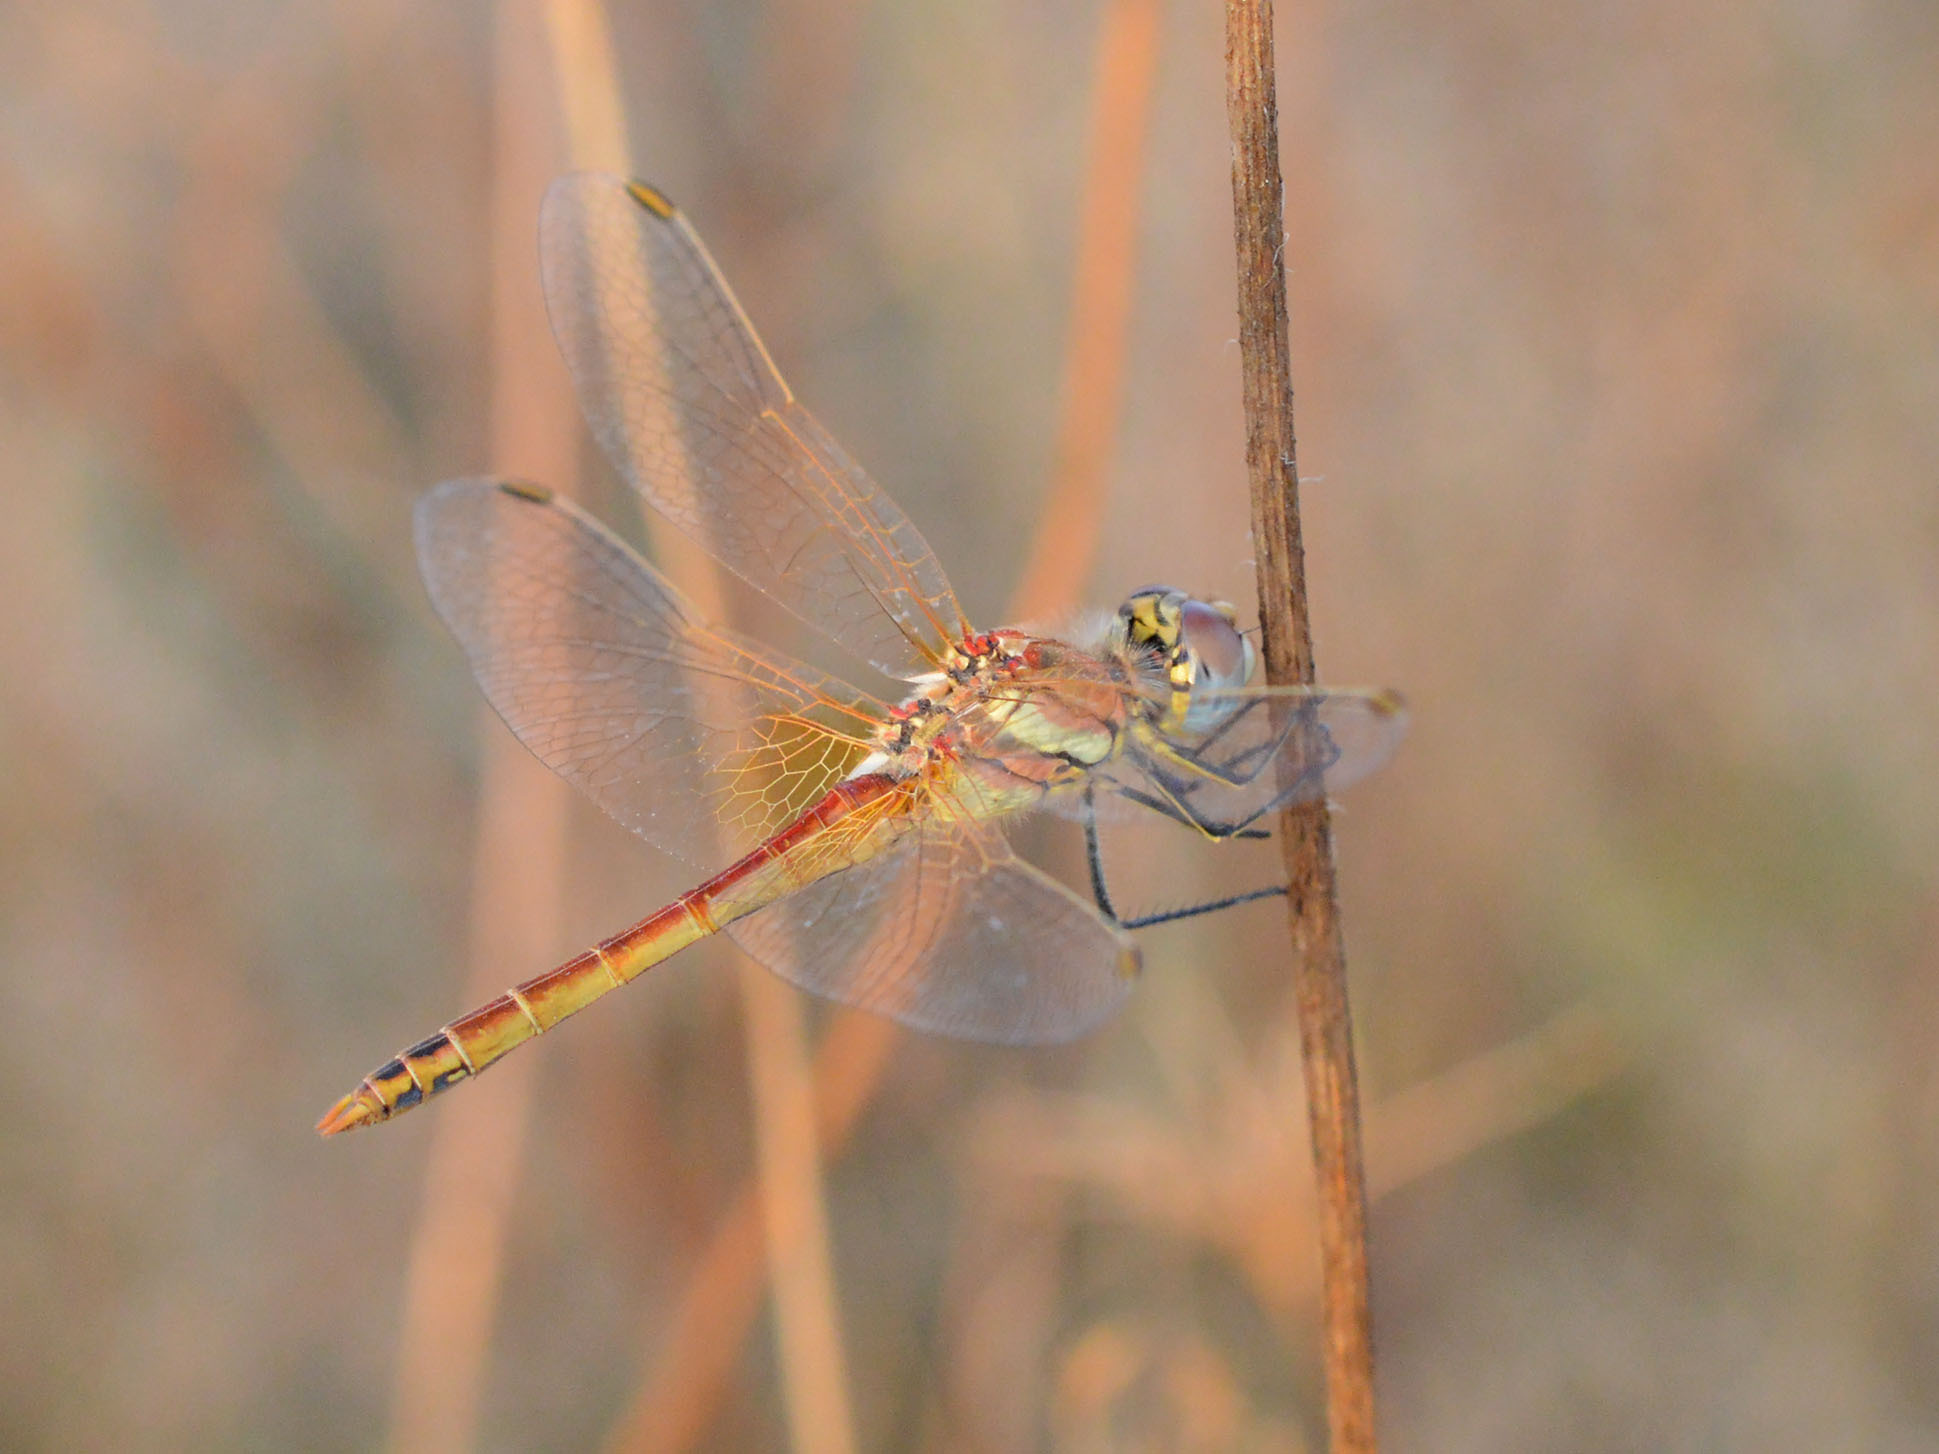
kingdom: Animalia
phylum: Arthropoda
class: Insecta
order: Odonata
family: Libellulidae
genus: Sympetrum
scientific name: Sympetrum fonscolombii
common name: Red-veined darter
